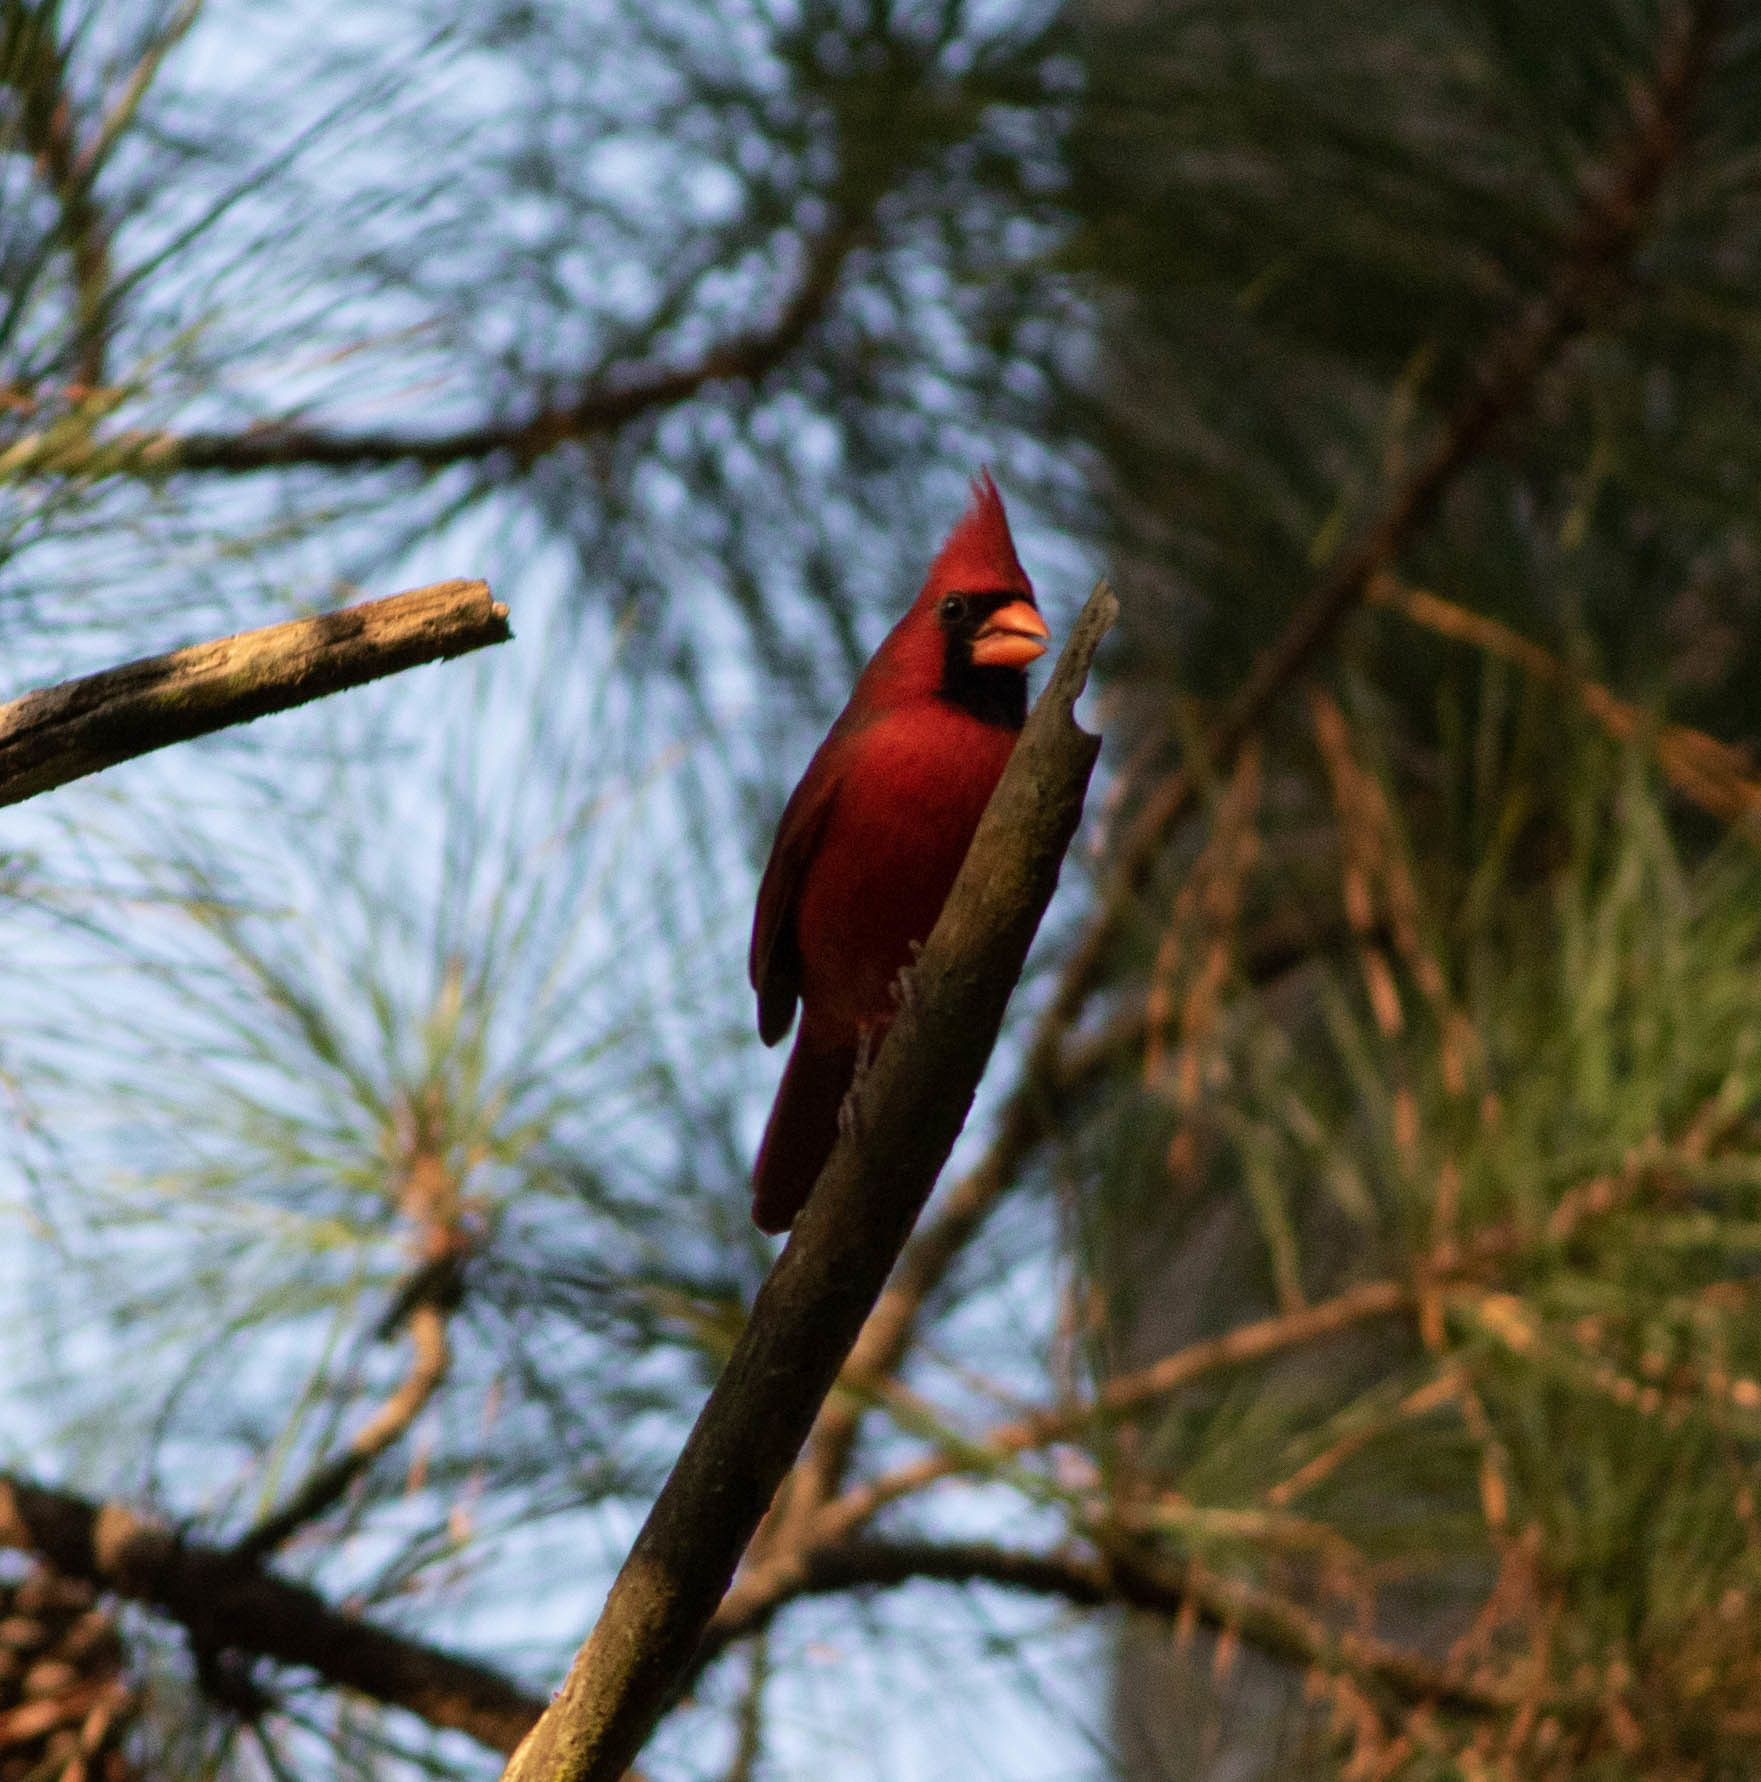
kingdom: Animalia
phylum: Chordata
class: Aves
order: Passeriformes
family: Cardinalidae
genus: Cardinalis
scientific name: Cardinalis cardinalis
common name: Northern cardinal
